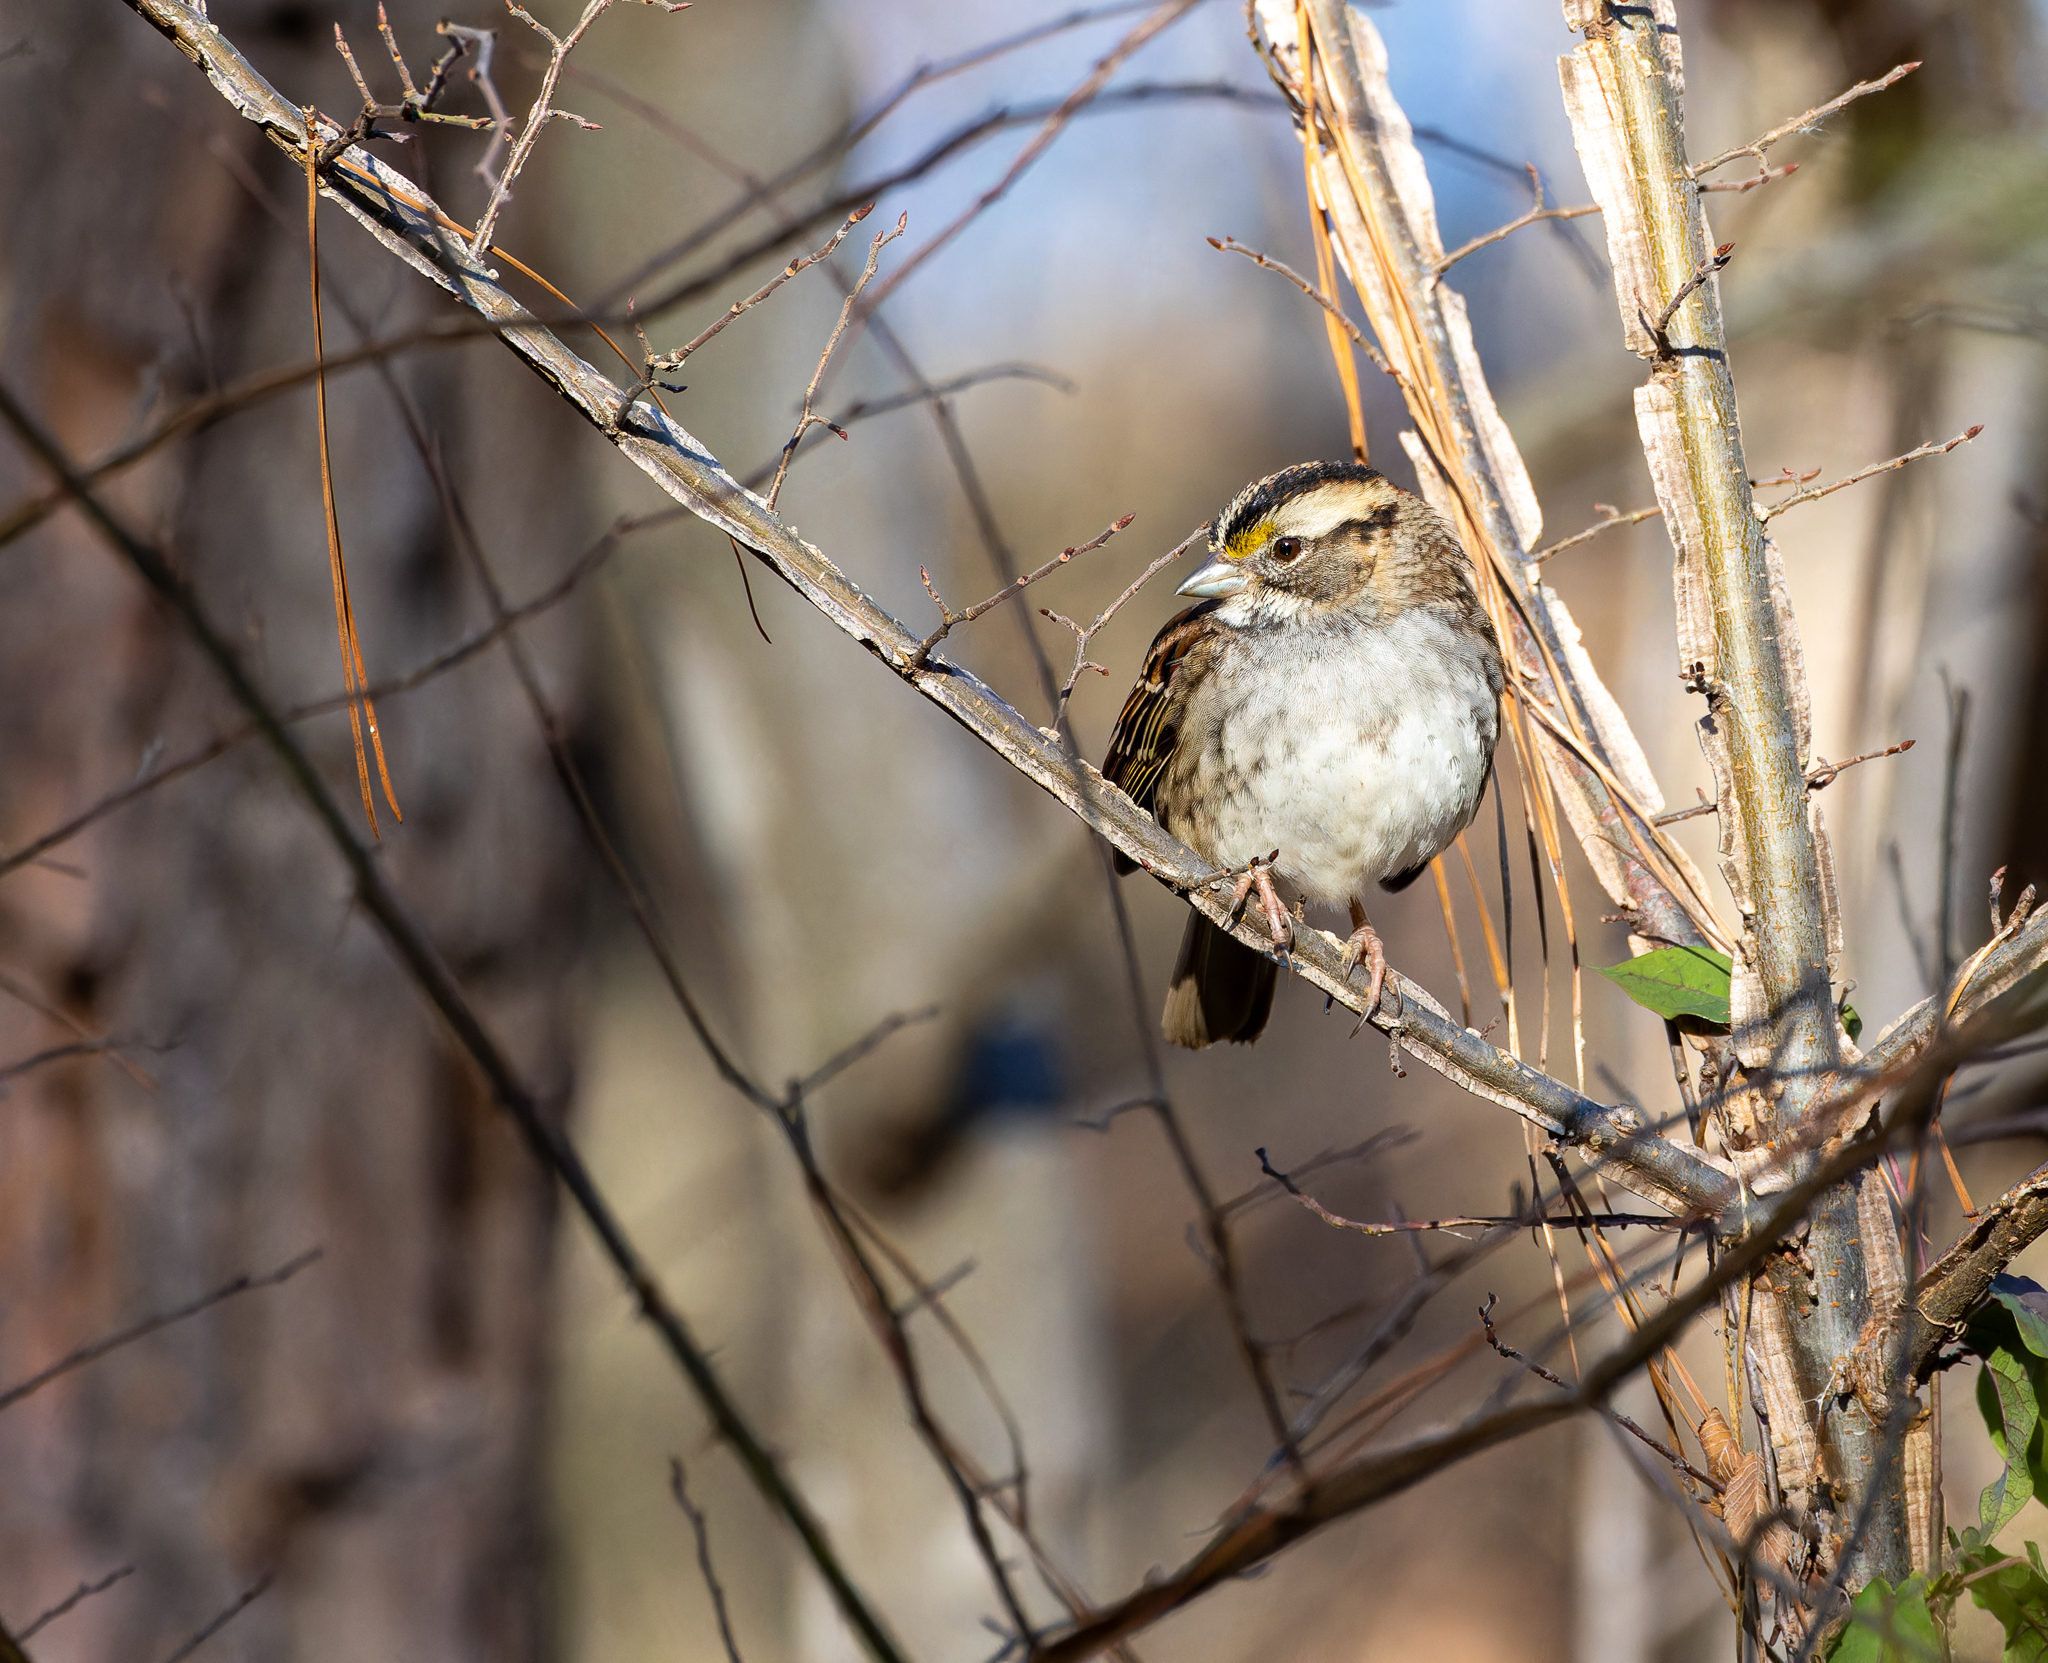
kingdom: Animalia
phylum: Chordata
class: Aves
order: Passeriformes
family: Passerellidae
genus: Zonotrichia
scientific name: Zonotrichia albicollis
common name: White-throated sparrow
